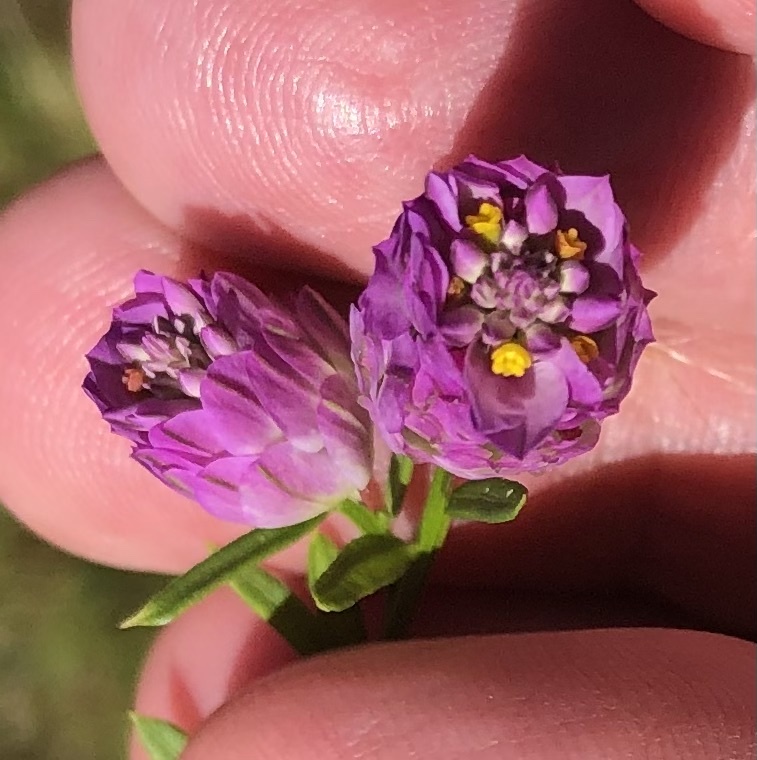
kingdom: Plantae
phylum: Tracheophyta
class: Magnoliopsida
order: Fabales
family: Polygalaceae
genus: Polygala
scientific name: Polygala sanguinea
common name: Blood milkwort
